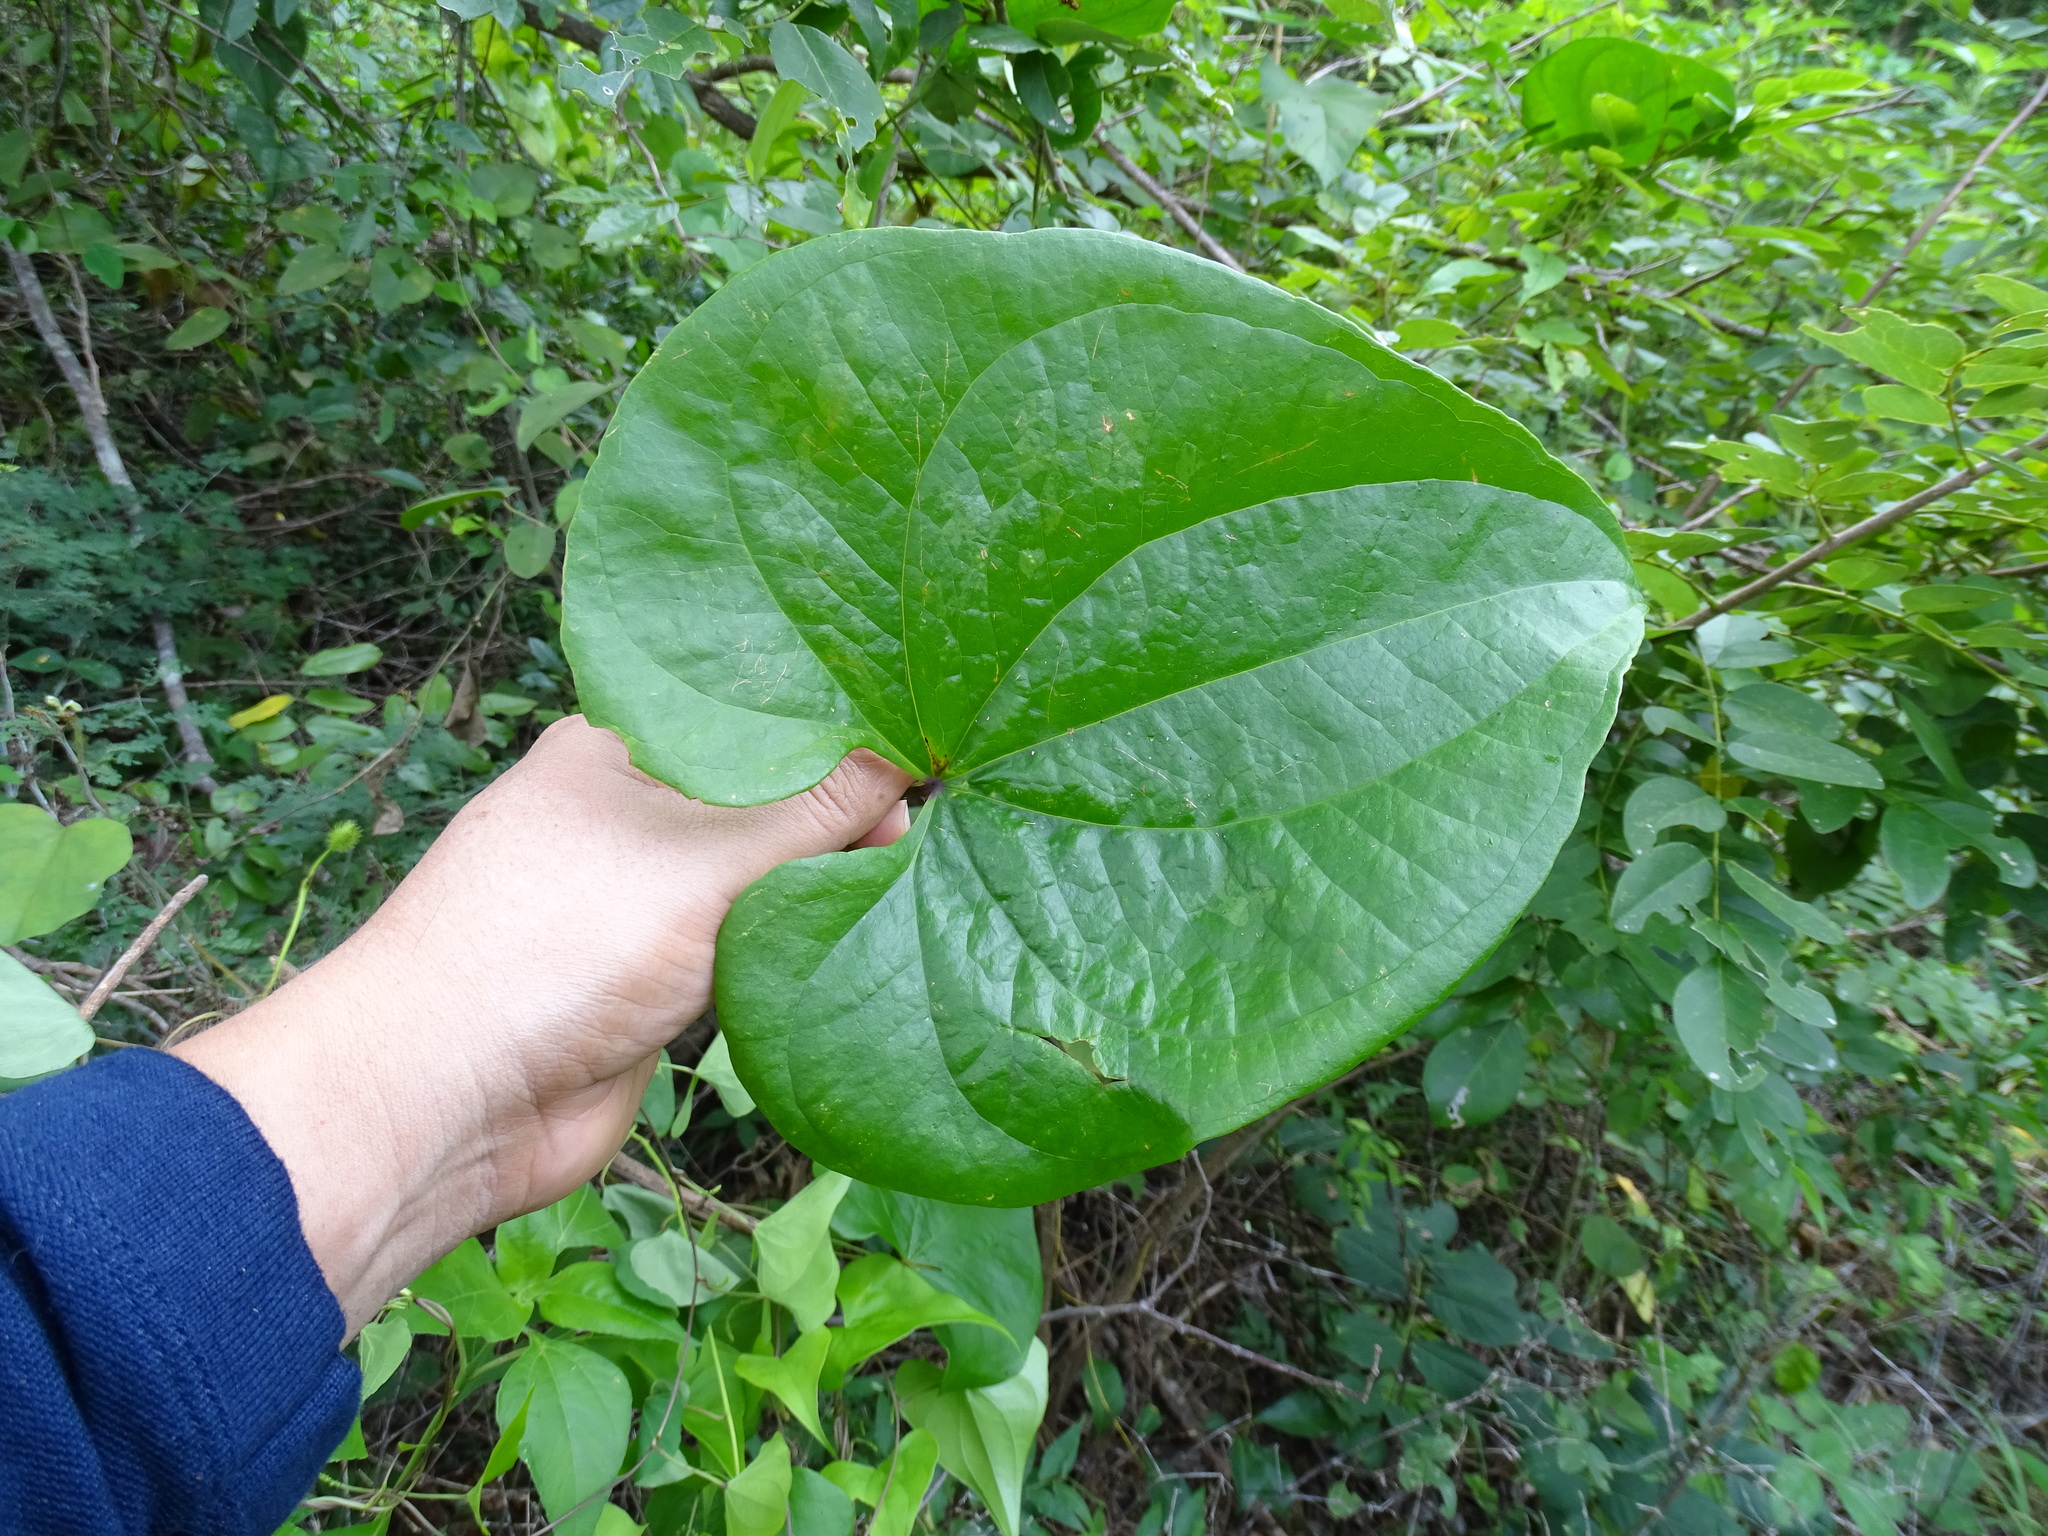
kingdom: Plantae
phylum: Tracheophyta
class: Magnoliopsida
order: Solanales
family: Convolvulaceae
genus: Ipomoea
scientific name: Ipomoea crinicalyx
